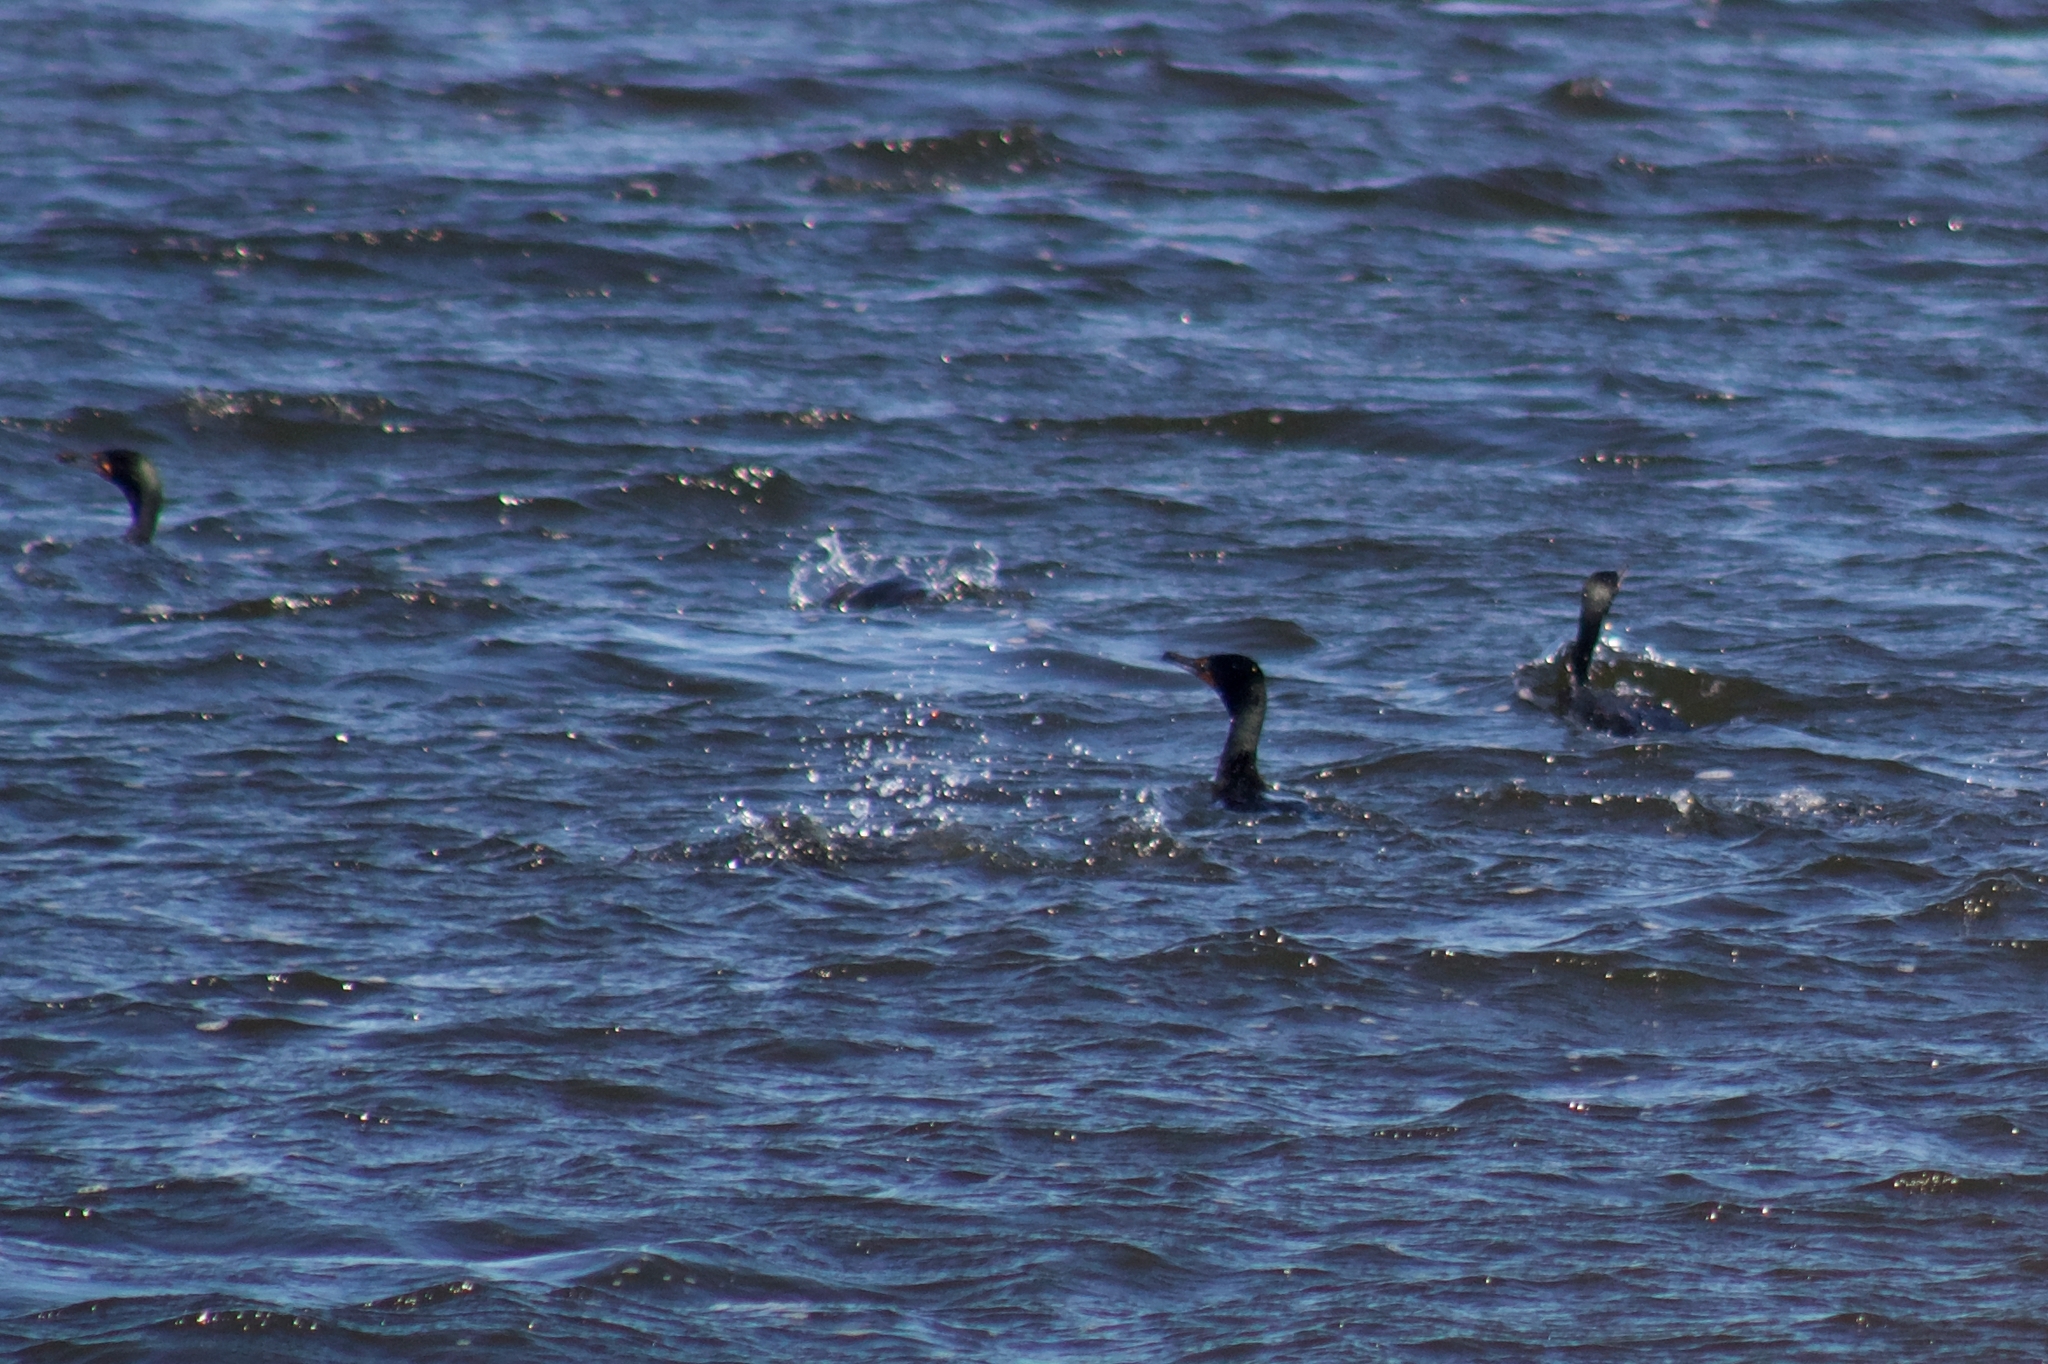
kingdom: Animalia
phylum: Chordata
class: Aves
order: Suliformes
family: Phalacrocoracidae
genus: Phalacrocorax
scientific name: Phalacrocorax auritus
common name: Double-crested cormorant
